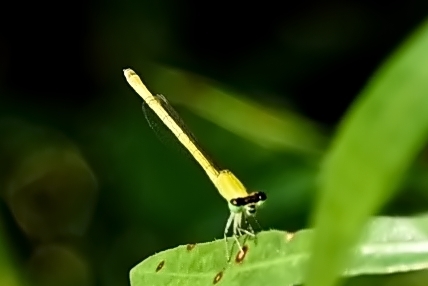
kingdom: Animalia
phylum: Arthropoda
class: Insecta
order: Odonata
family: Coenagrionidae
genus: Agriocnemis
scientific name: Agriocnemis kalinga
